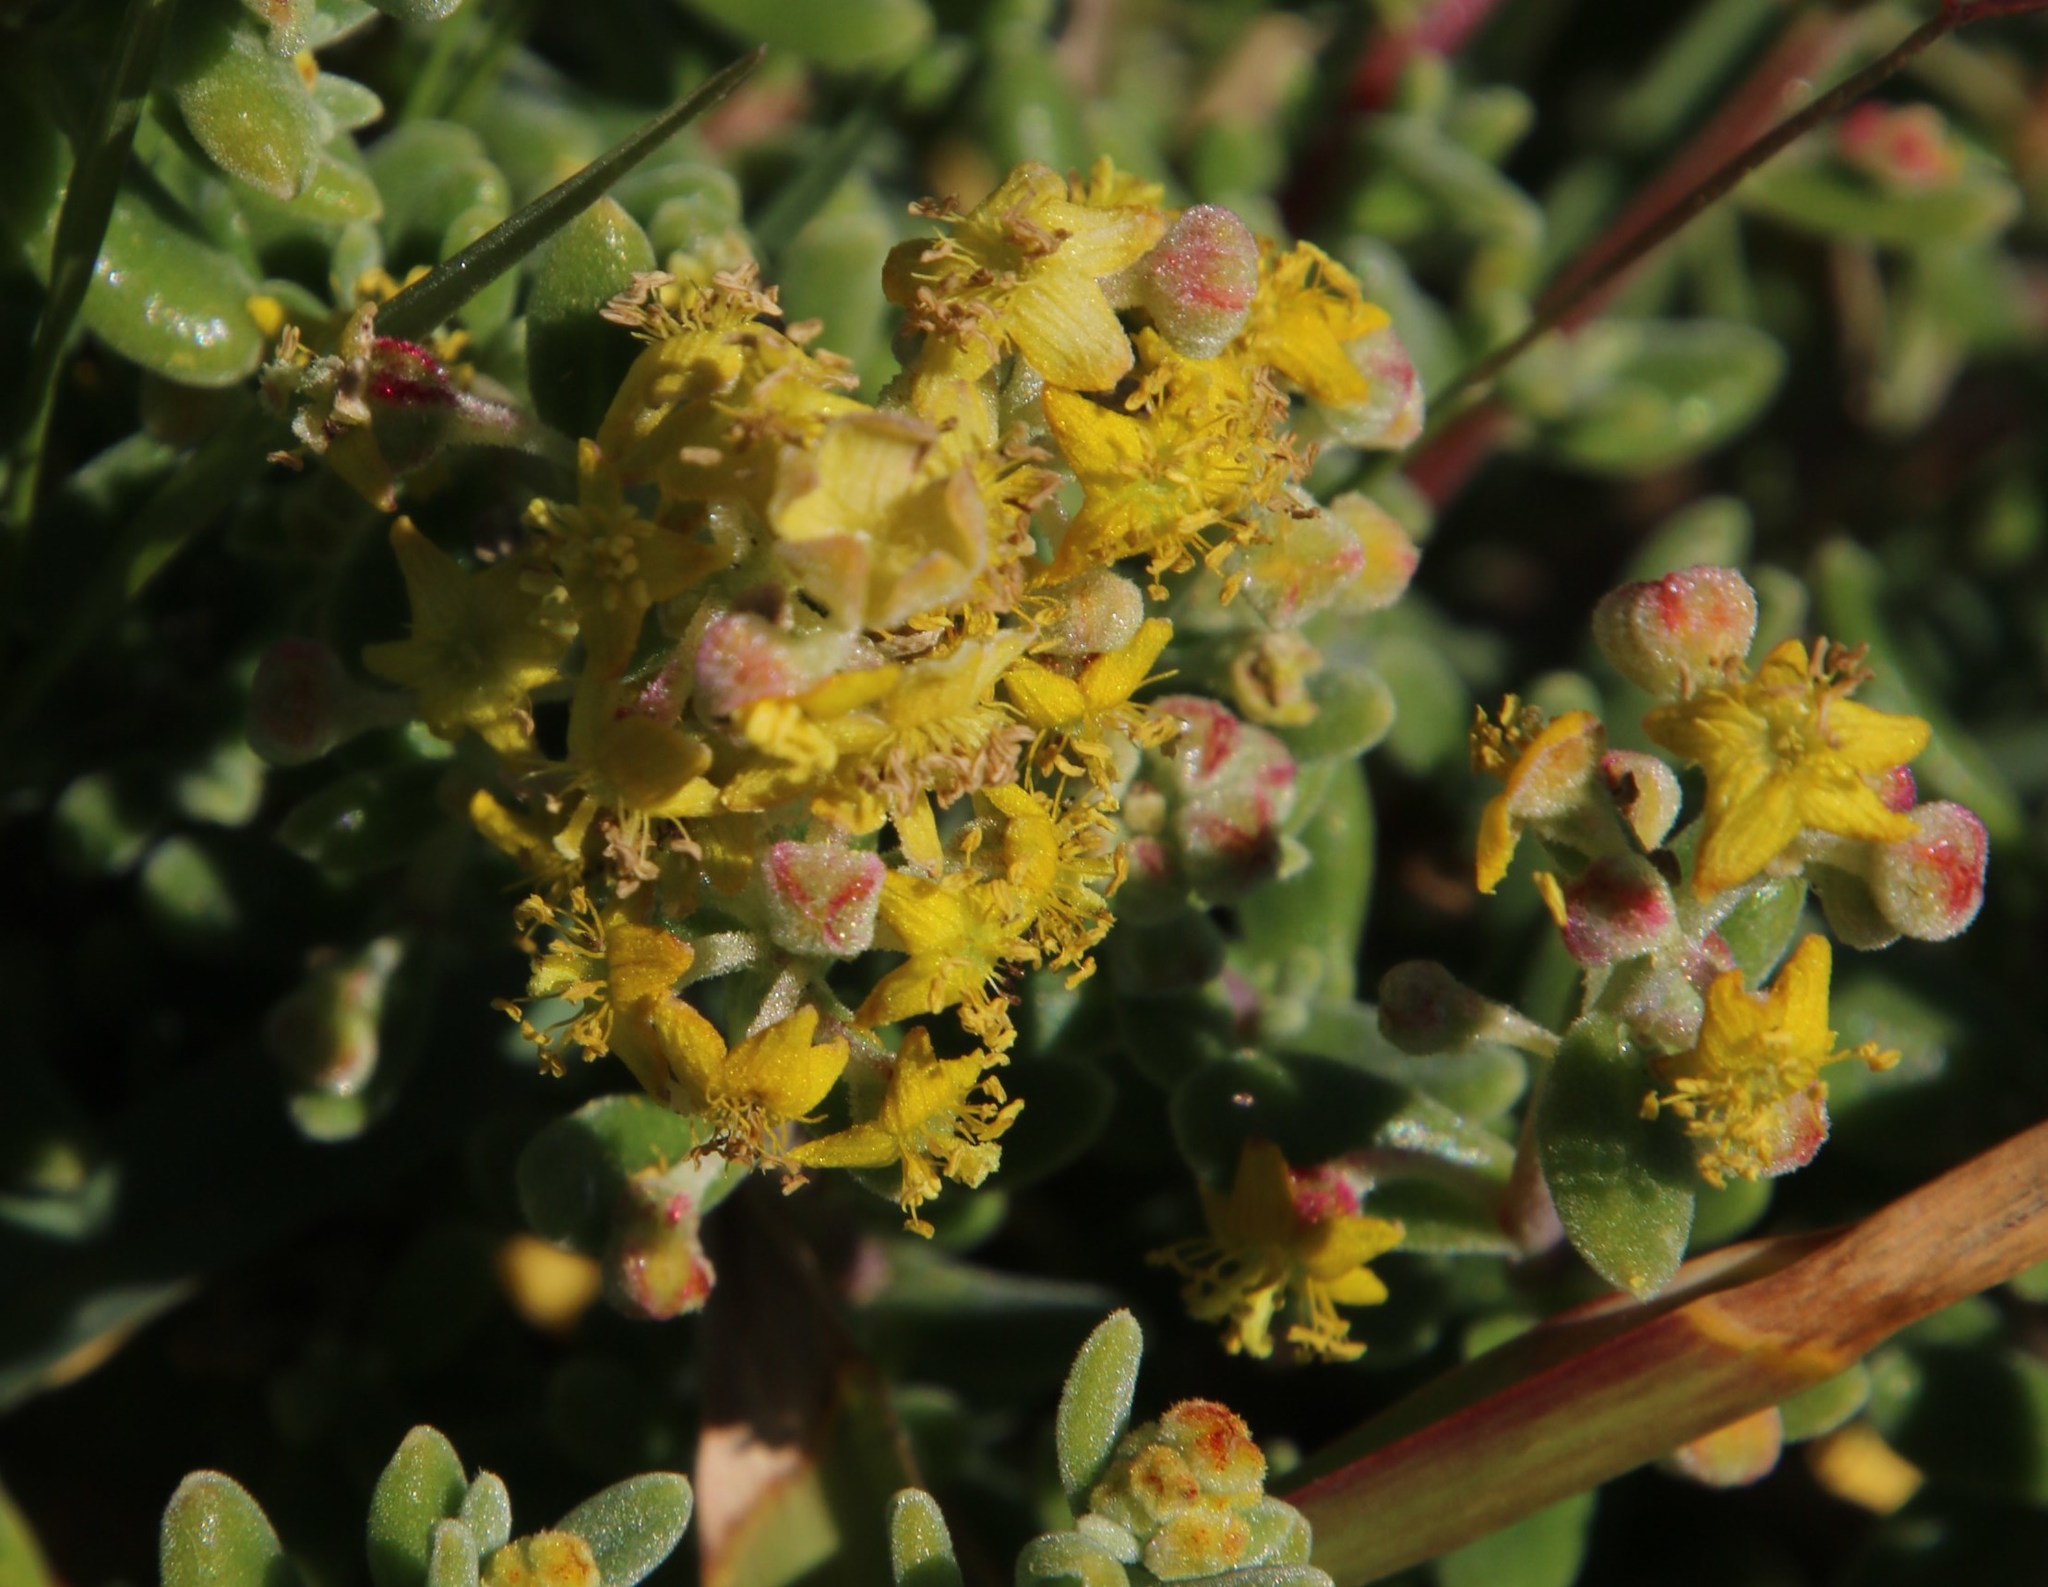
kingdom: Plantae
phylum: Tracheophyta
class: Magnoliopsida
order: Caryophyllales
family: Aizoaceae
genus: Tetragonia
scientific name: Tetragonia fruticosa
